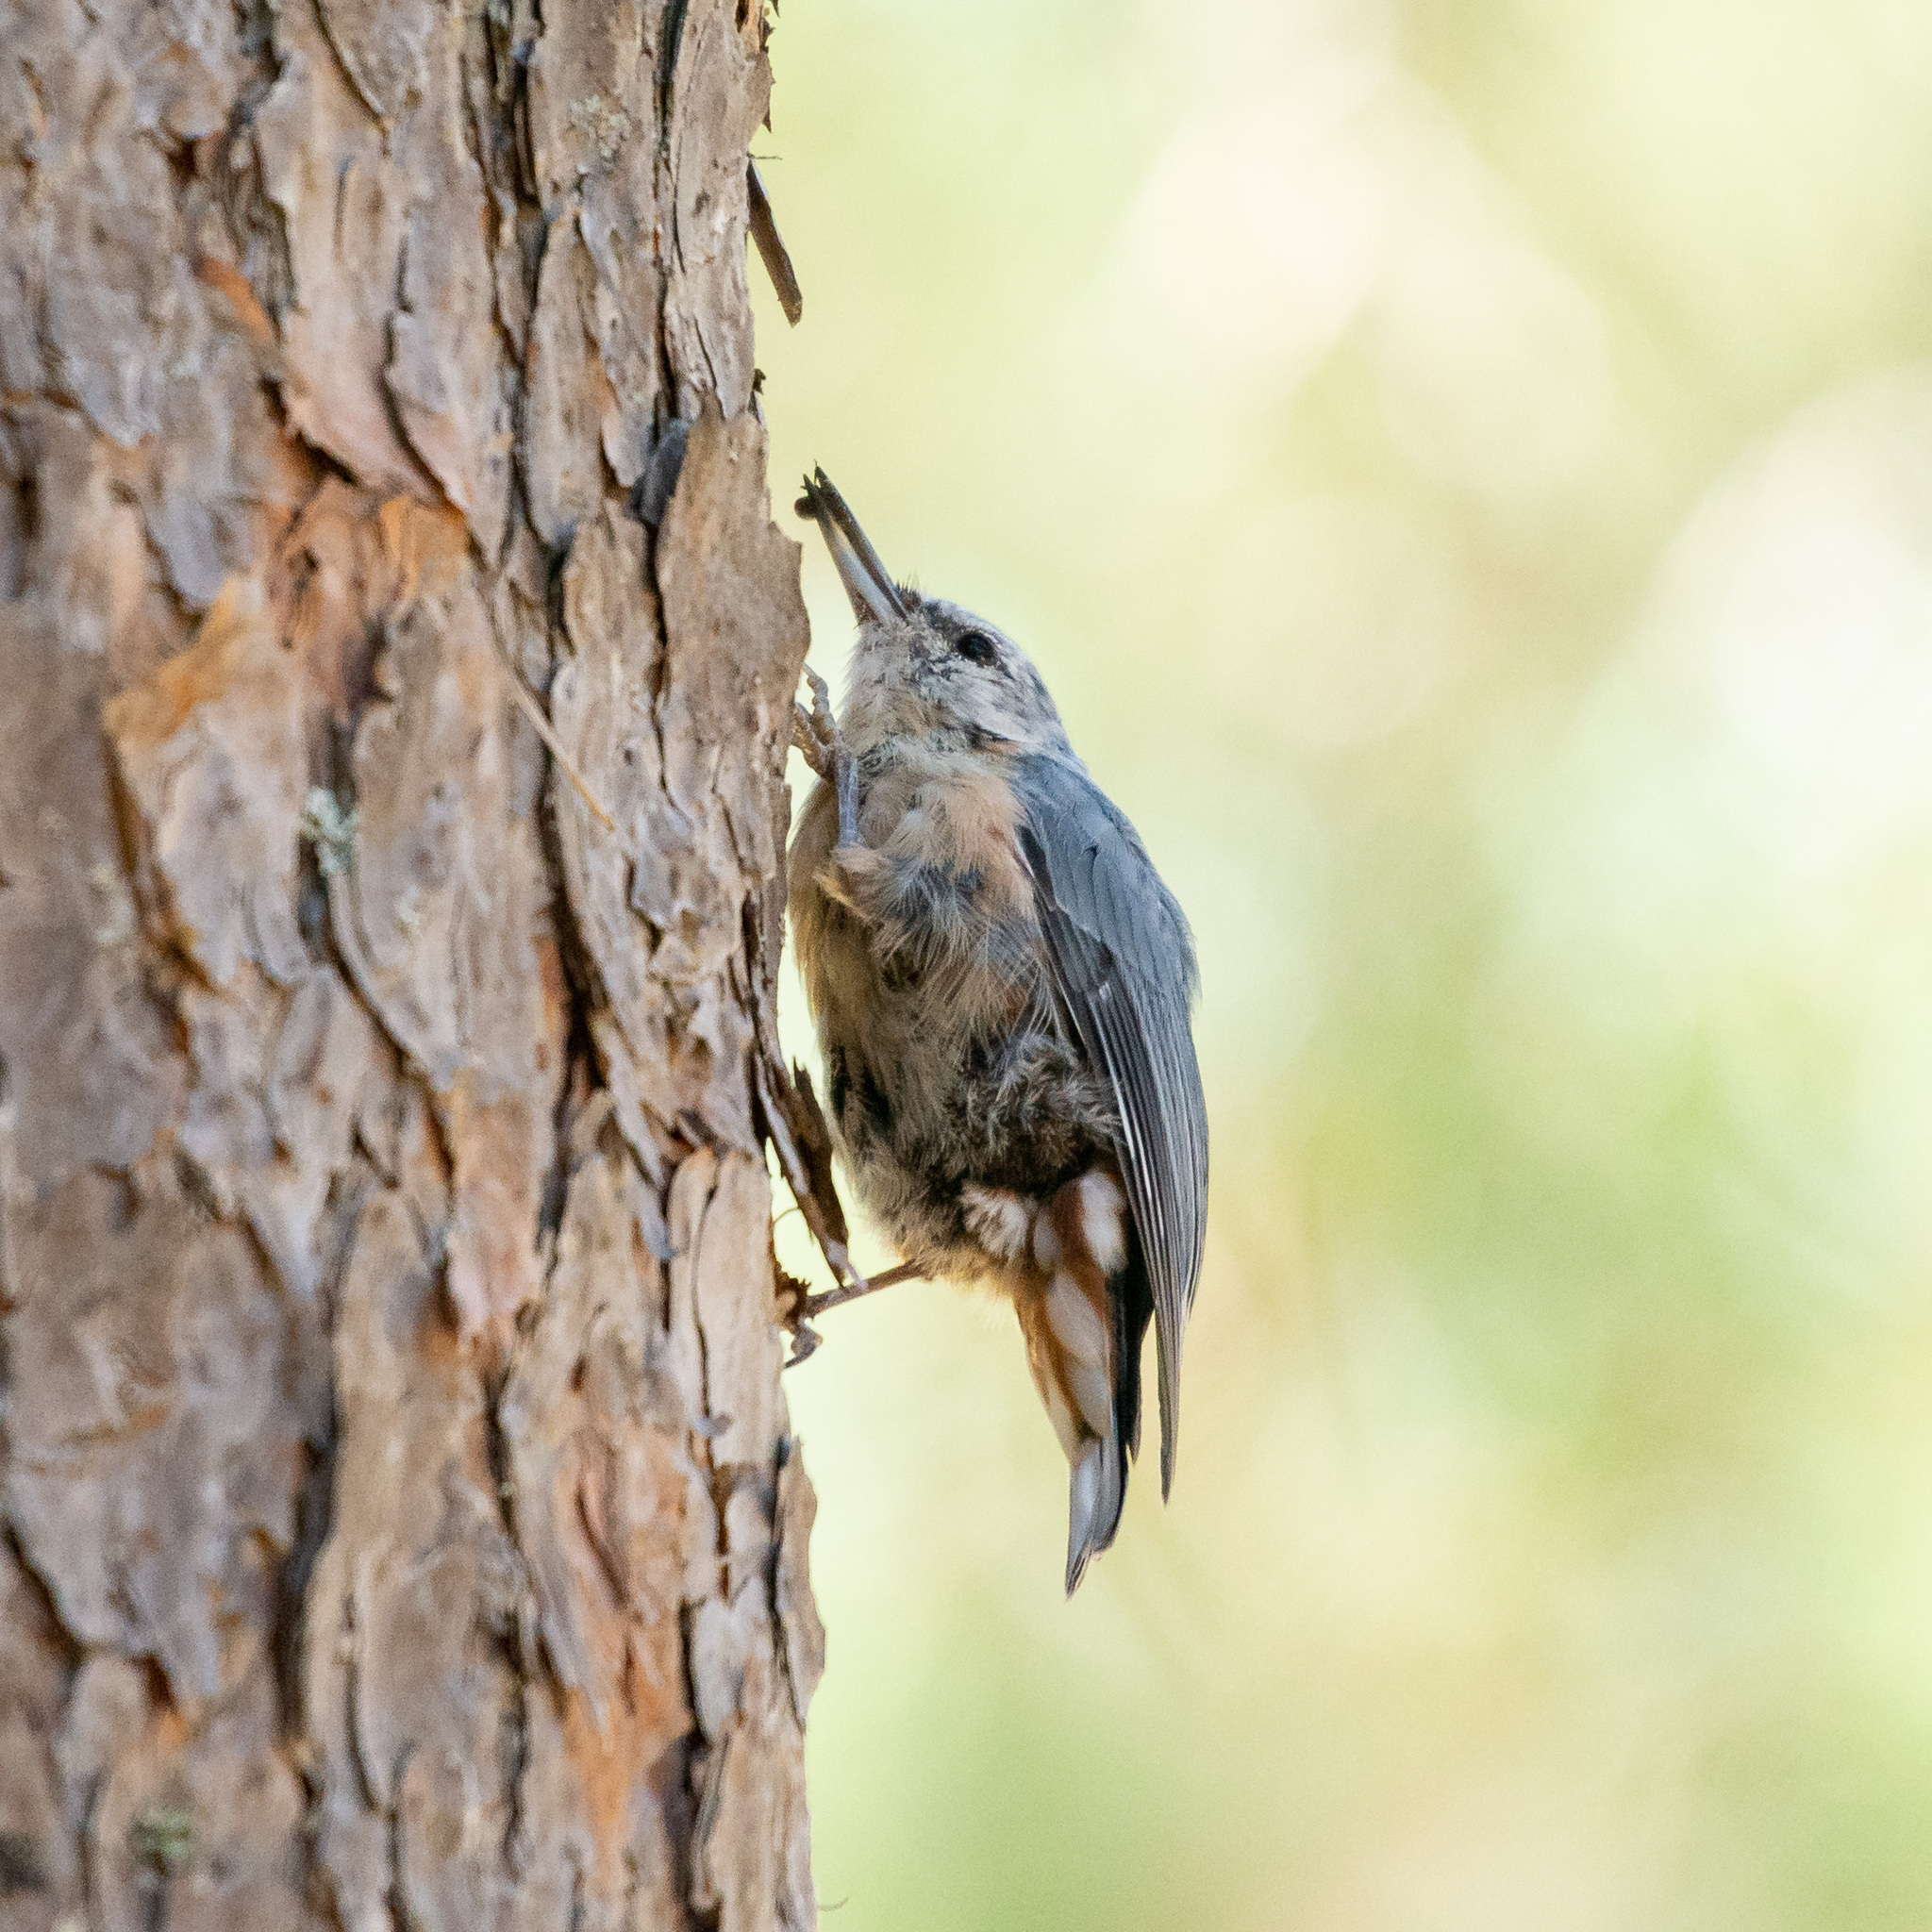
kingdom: Animalia
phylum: Chordata
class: Aves
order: Passeriformes
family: Sittidae
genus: Sitta
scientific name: Sitta europaea
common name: Eurasian nuthatch
